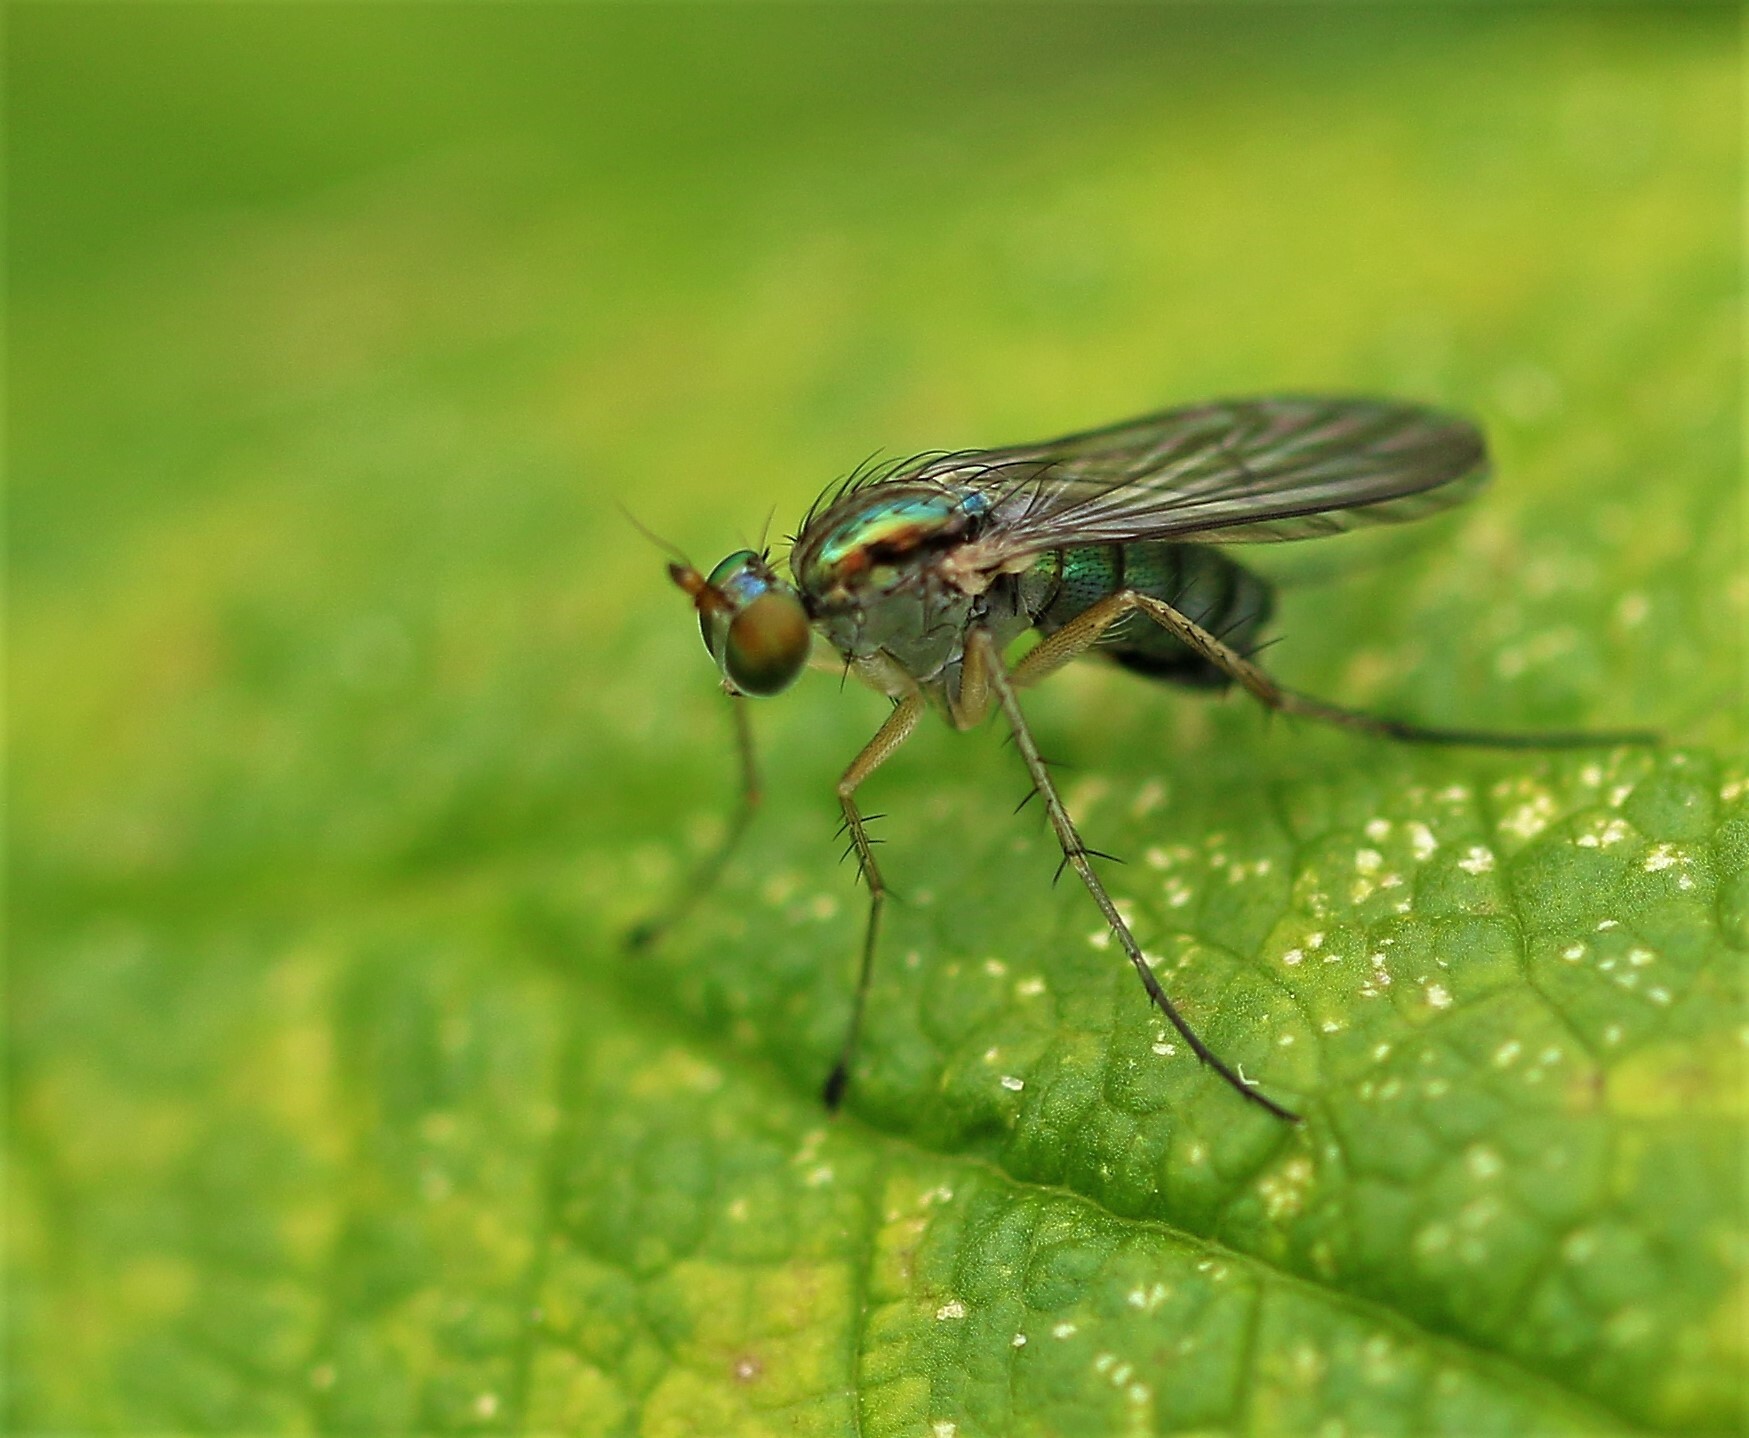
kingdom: Animalia
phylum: Arthropoda
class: Insecta
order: Diptera
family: Dolichopodidae
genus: Dolichopus
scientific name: Dolichopus cuprinus
